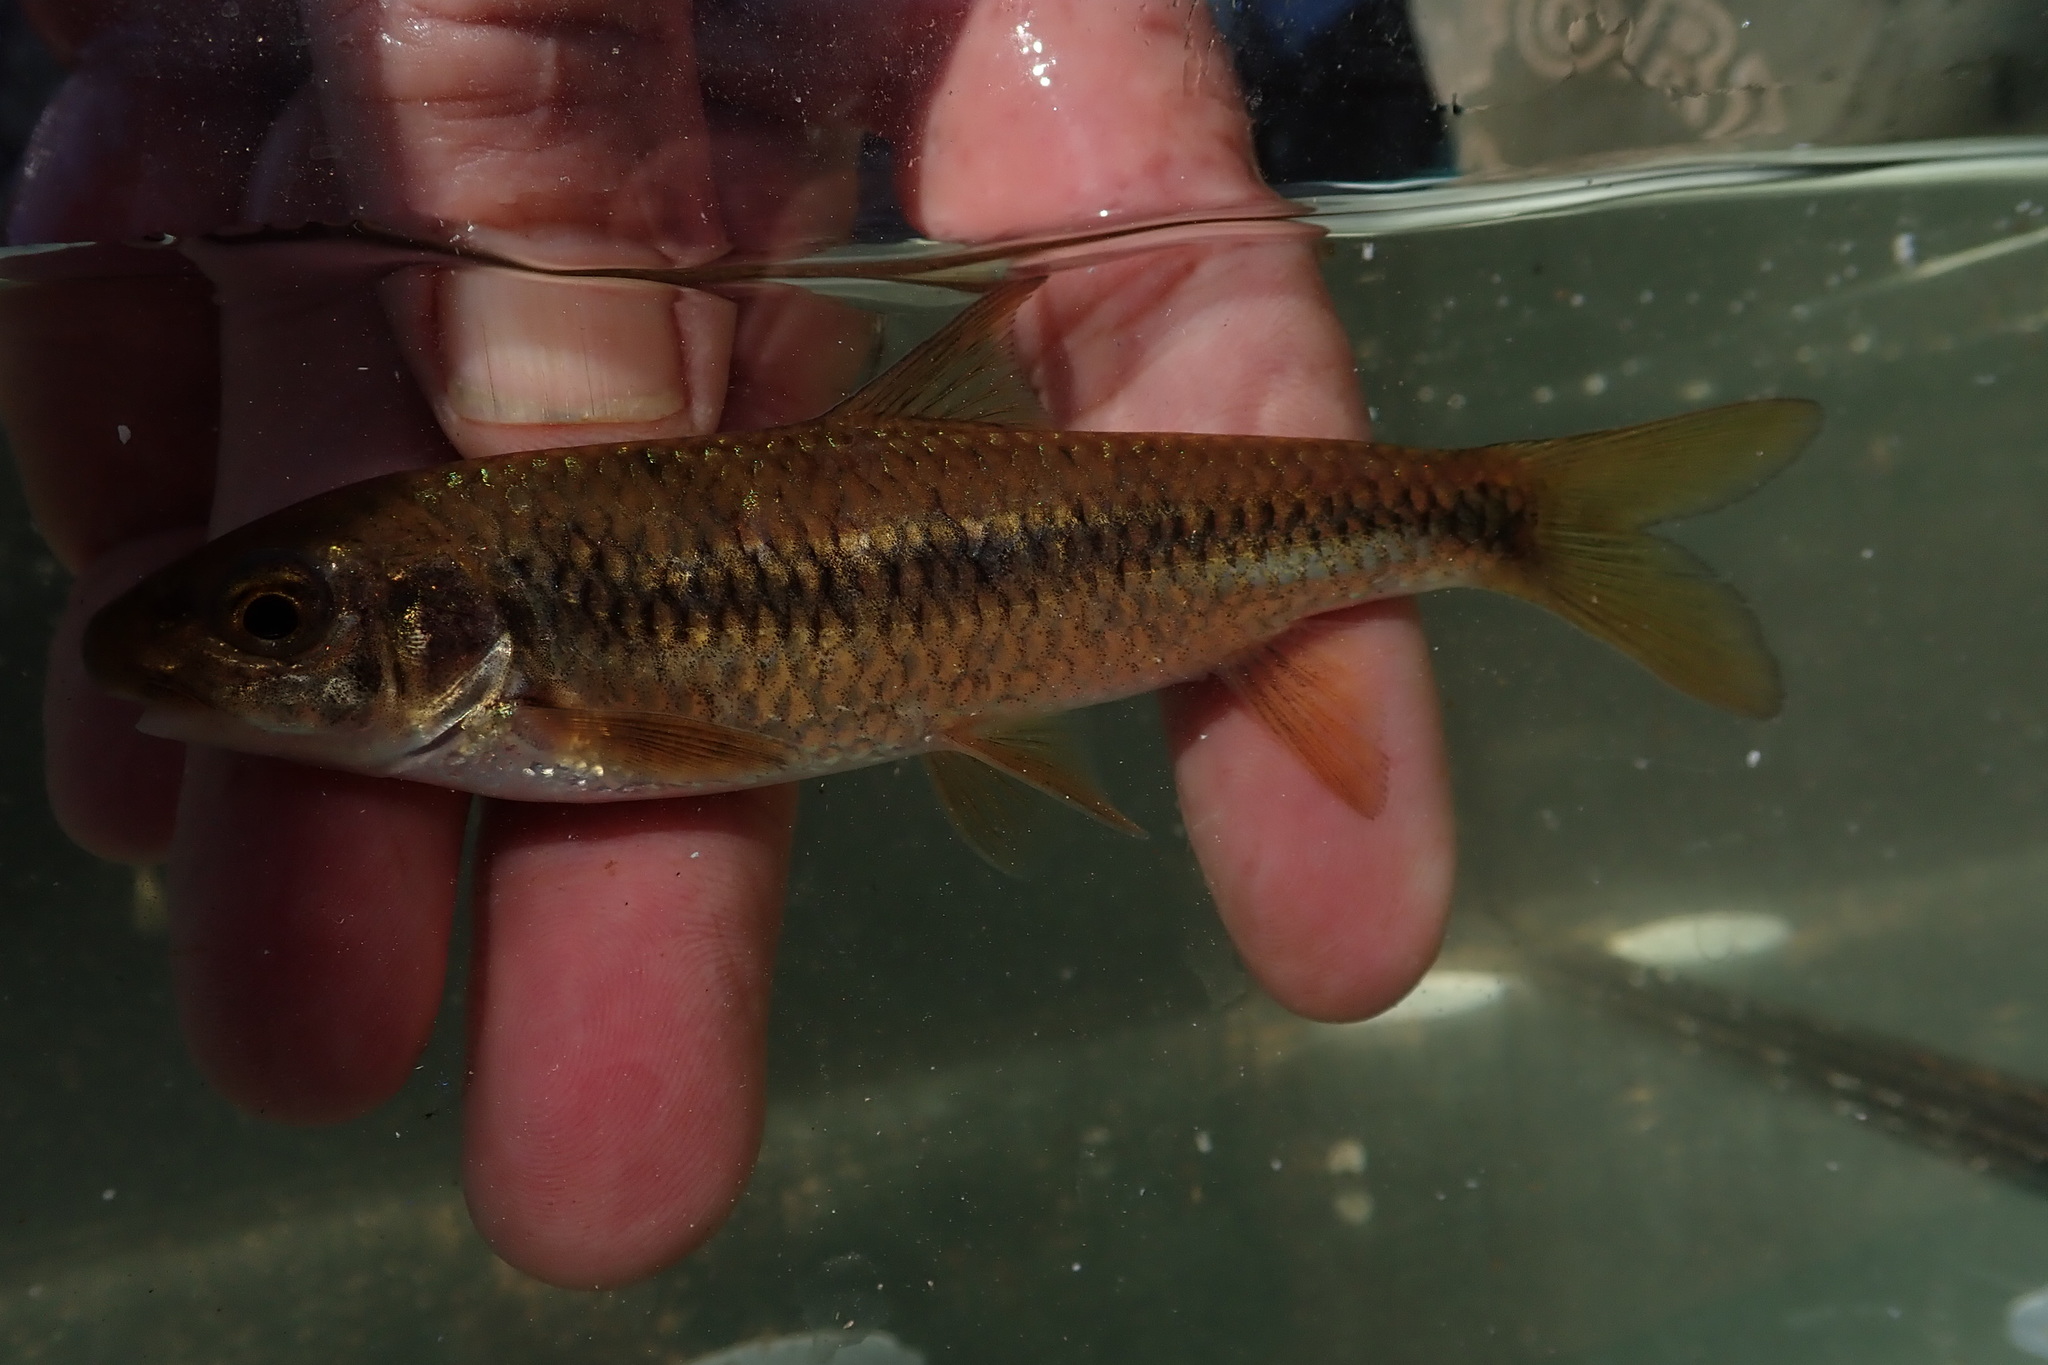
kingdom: Animalia
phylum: Chordata
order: Cypriniformes
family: Cyprinidae
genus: Labeobarbus
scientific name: Labeobarbus nelspruitensis
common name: Incomati chiselmouth
